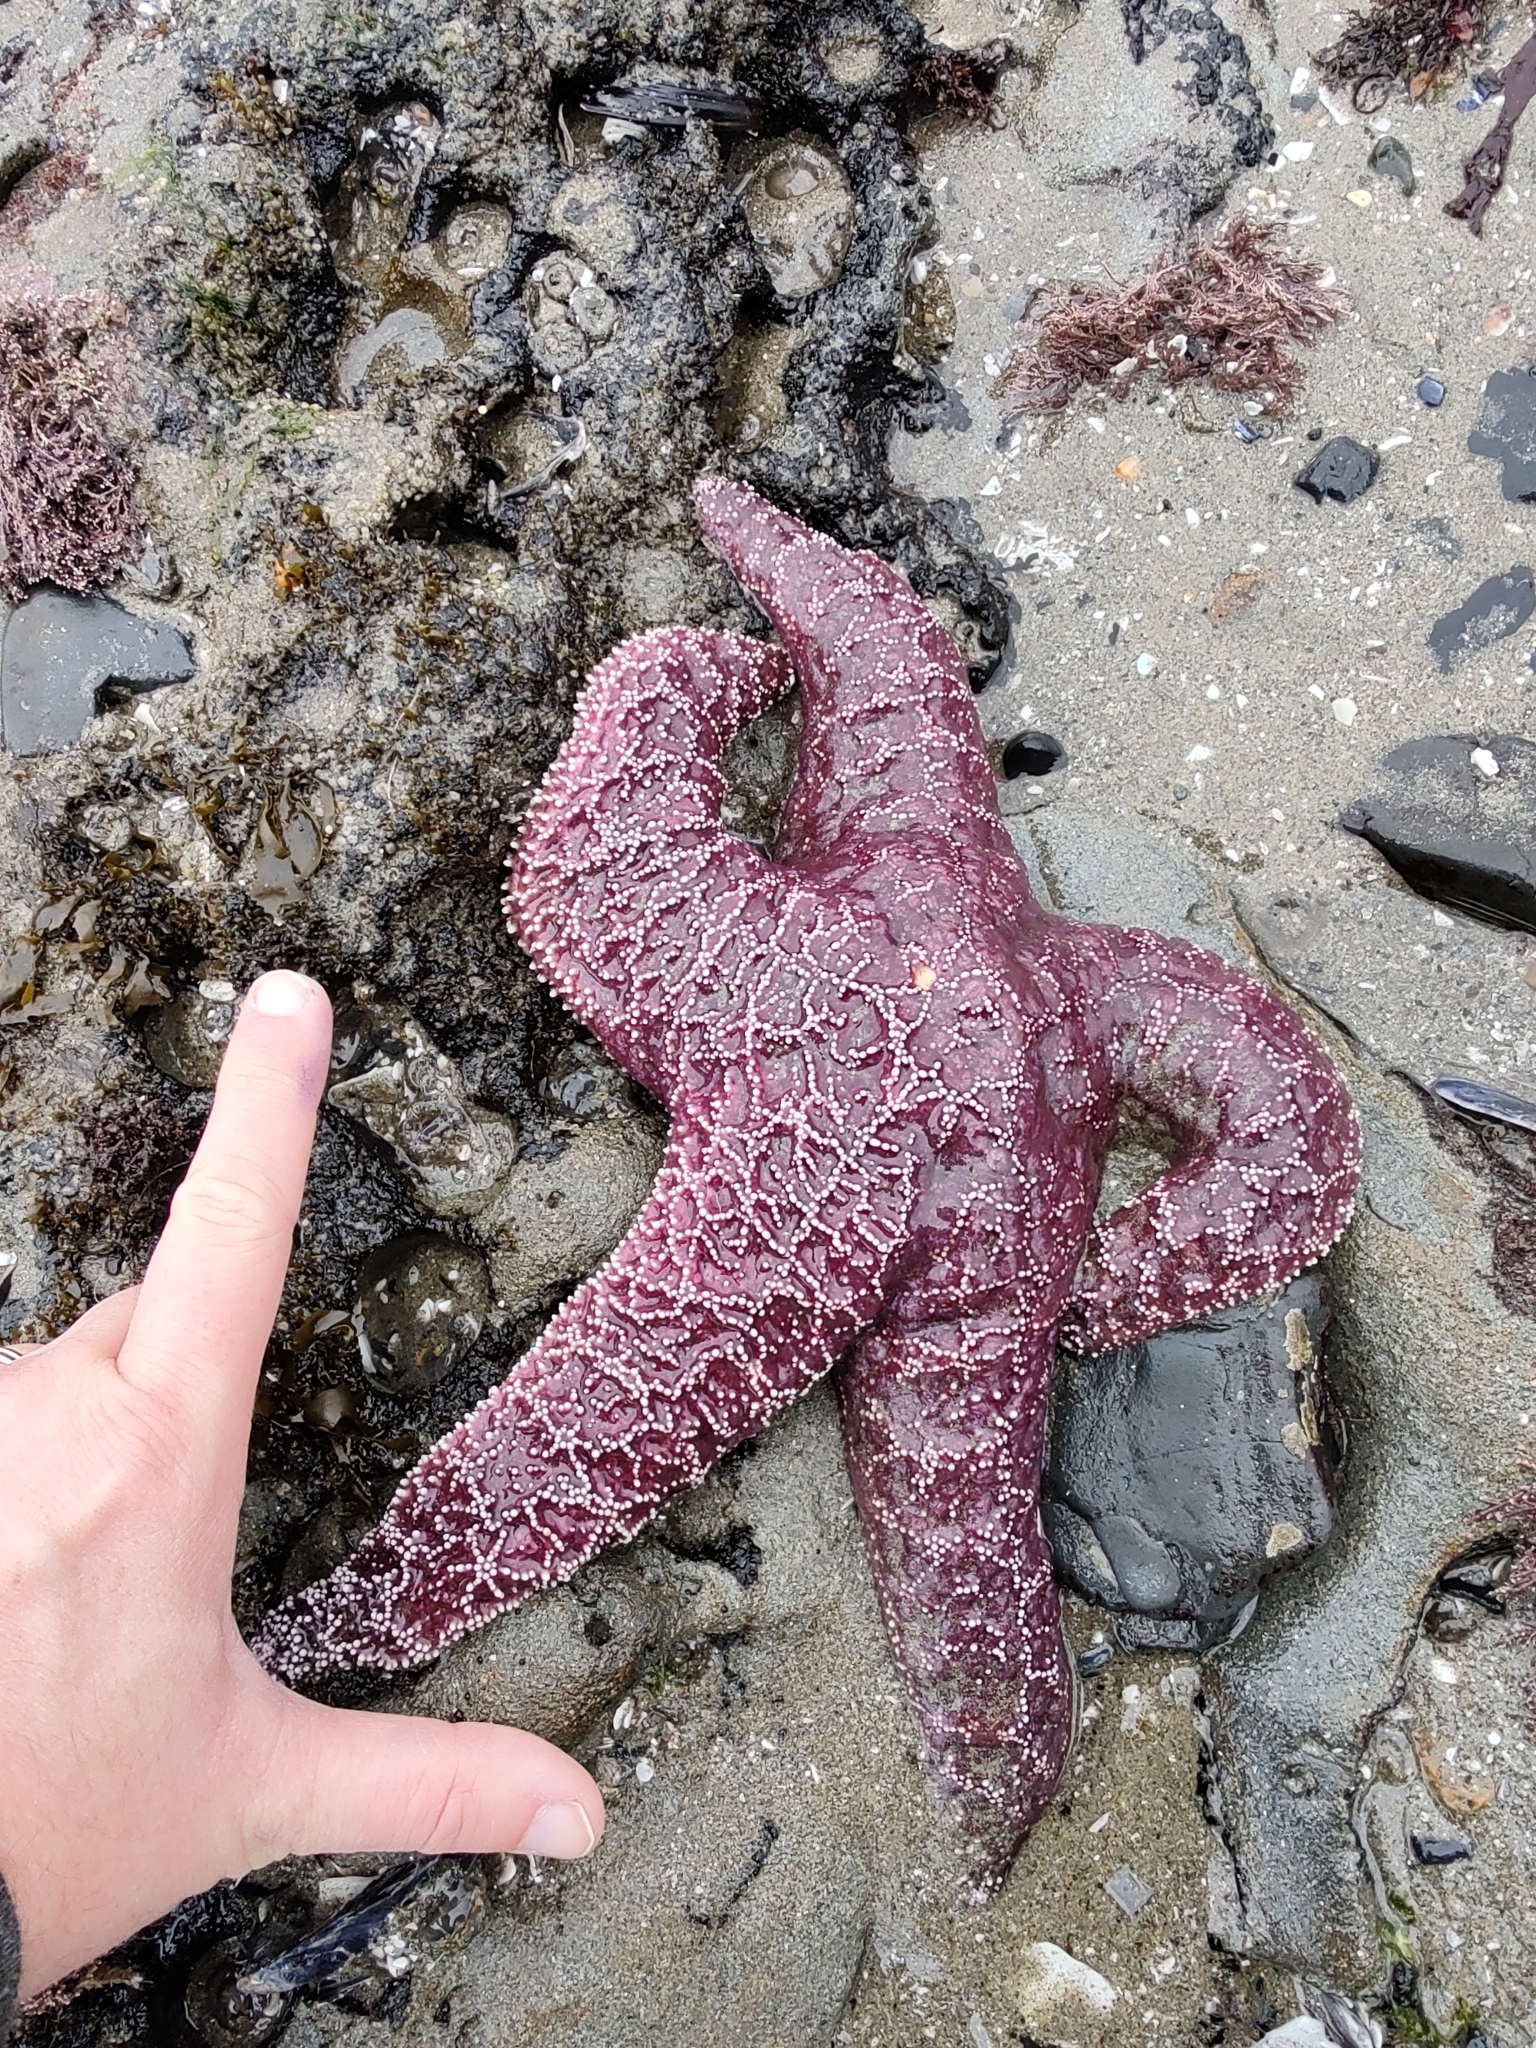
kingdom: Animalia
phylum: Echinodermata
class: Asteroidea
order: Forcipulatida
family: Asteriidae
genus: Pisaster
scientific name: Pisaster ochraceus
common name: Ochre stars
